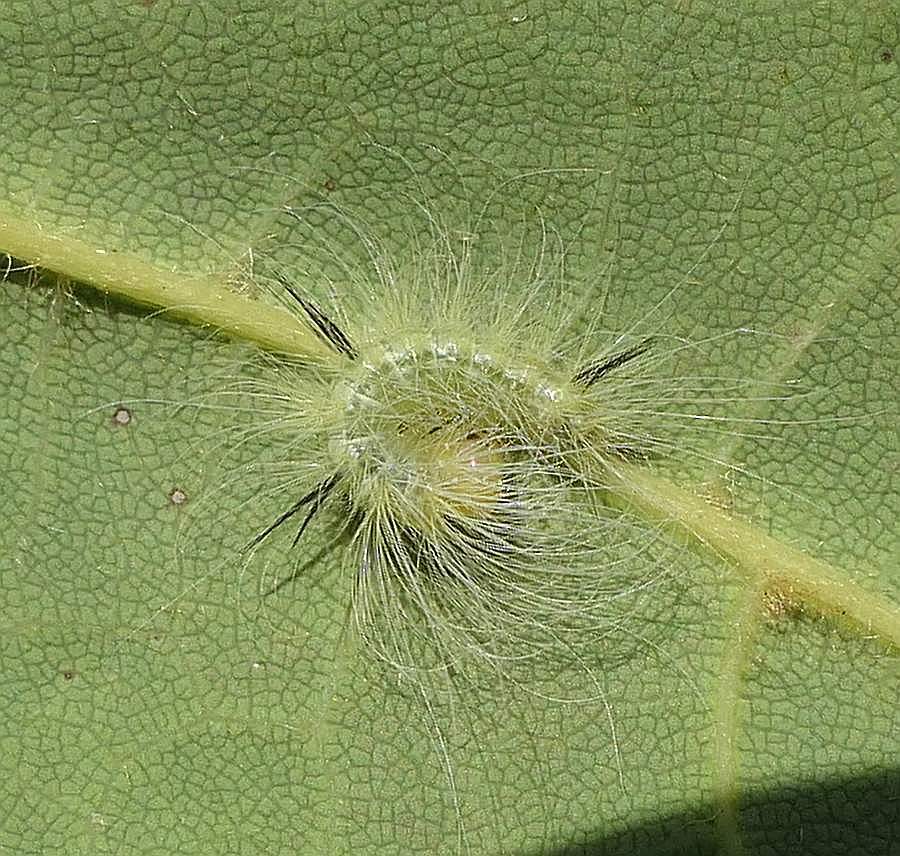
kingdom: Animalia
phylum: Arthropoda
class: Insecta
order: Lepidoptera
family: Noctuidae
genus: Acronicta
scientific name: Acronicta lepusculina
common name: Cottonwood dagger
